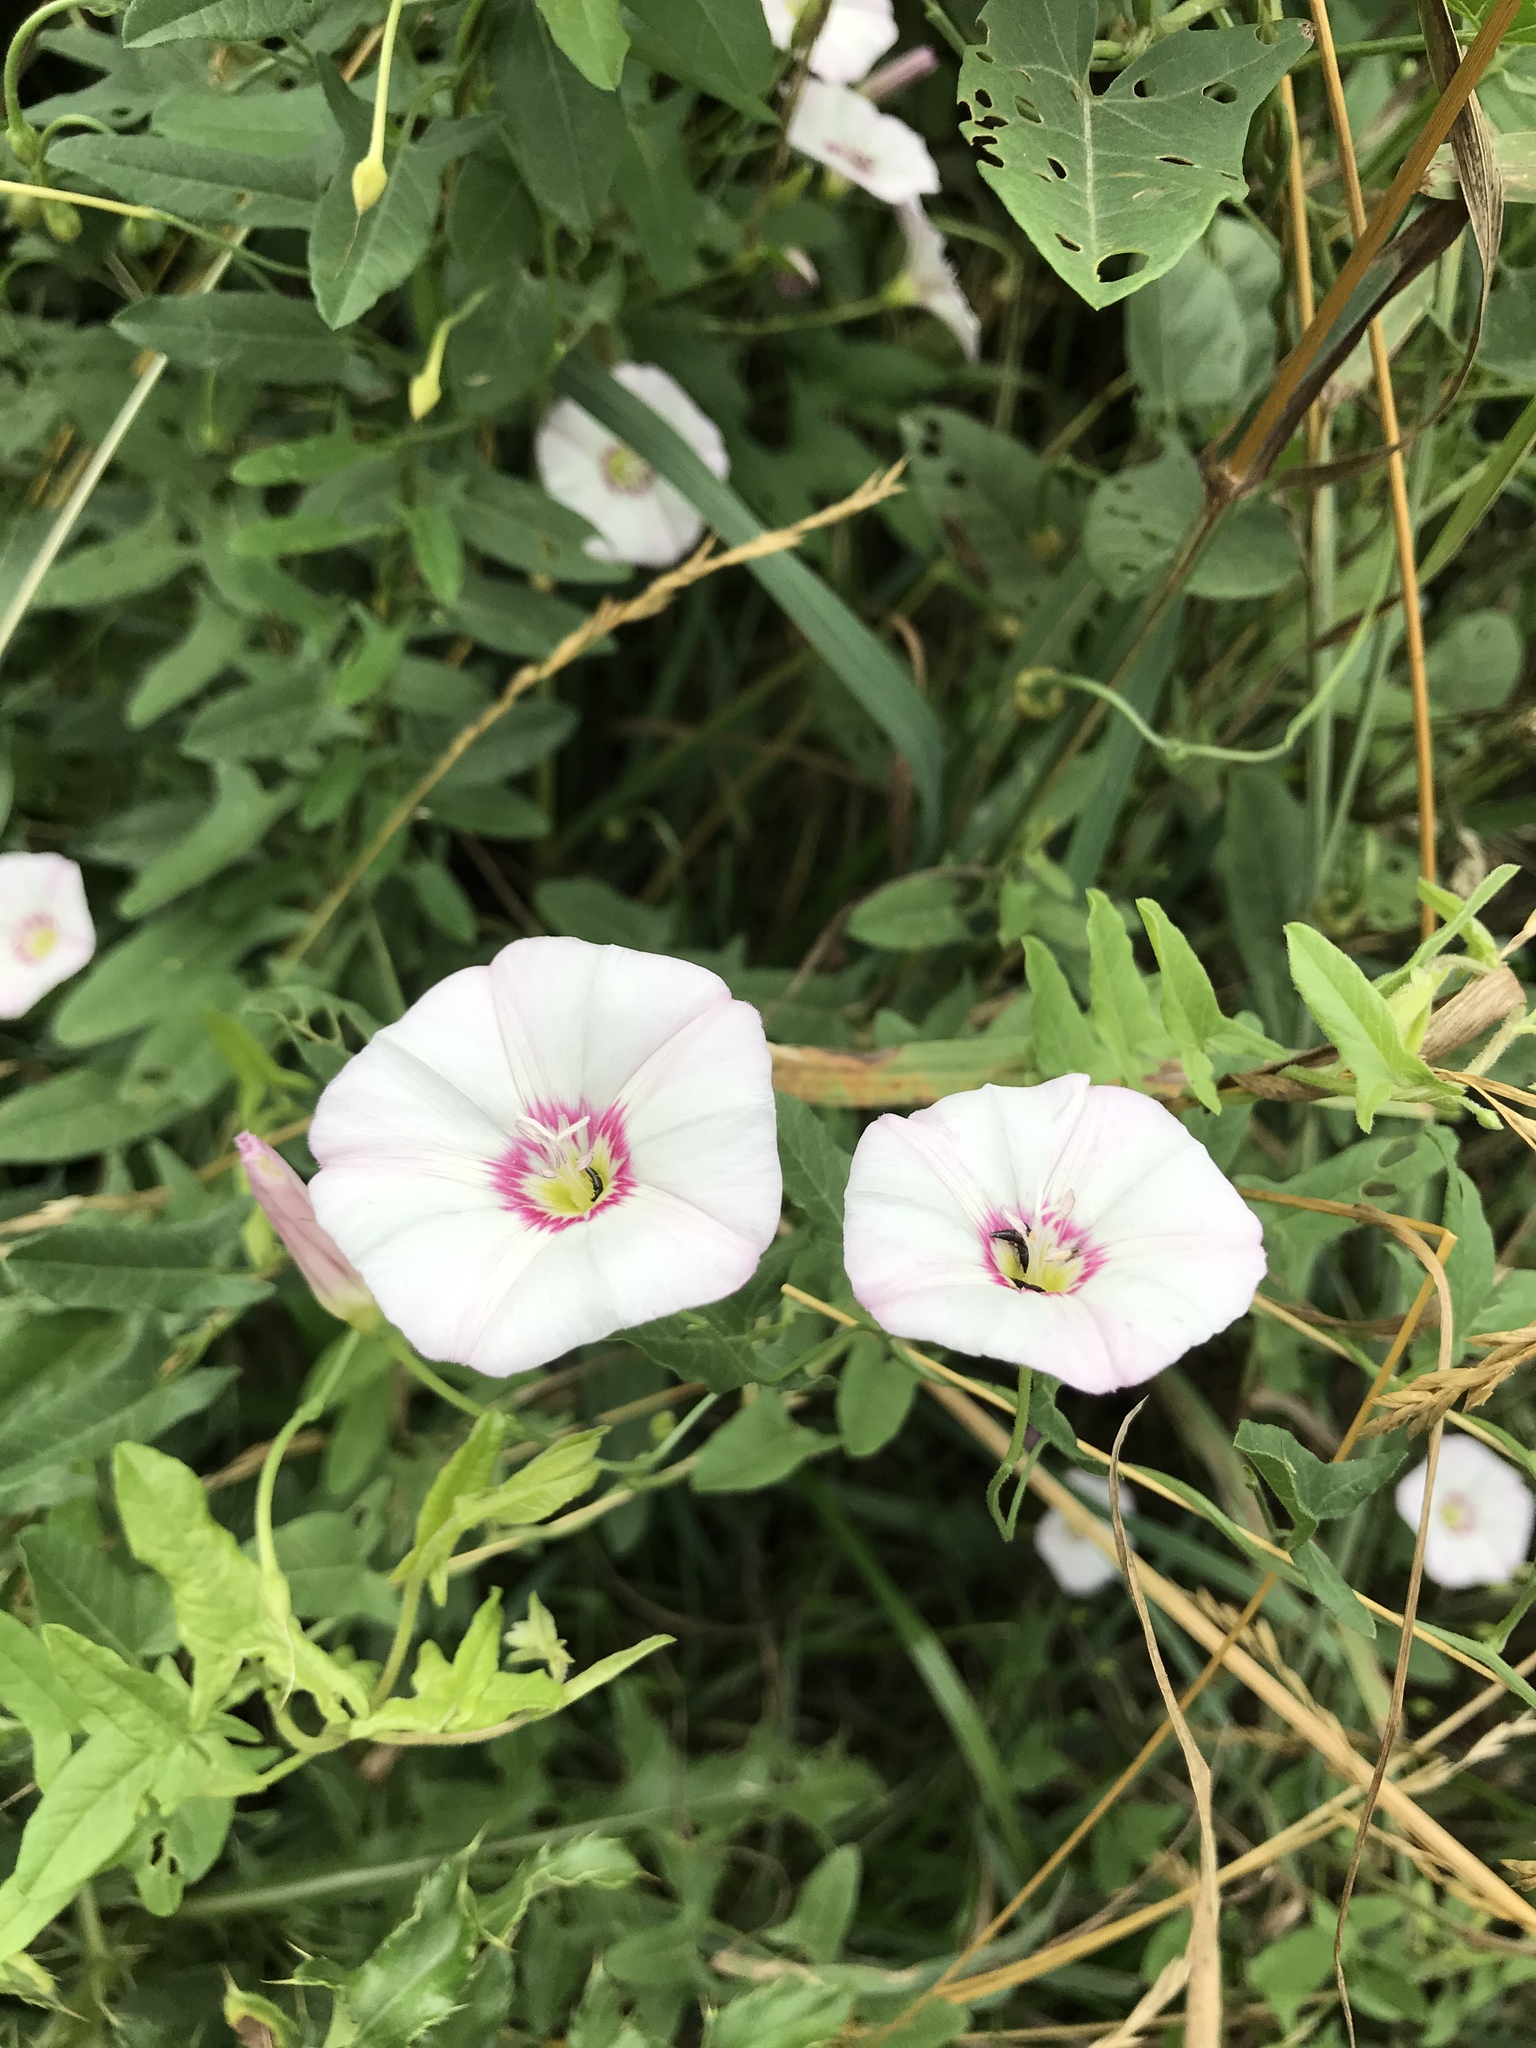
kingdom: Plantae
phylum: Tracheophyta
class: Magnoliopsida
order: Solanales
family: Convolvulaceae
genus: Convolvulus
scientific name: Convolvulus arvensis
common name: Field bindweed
